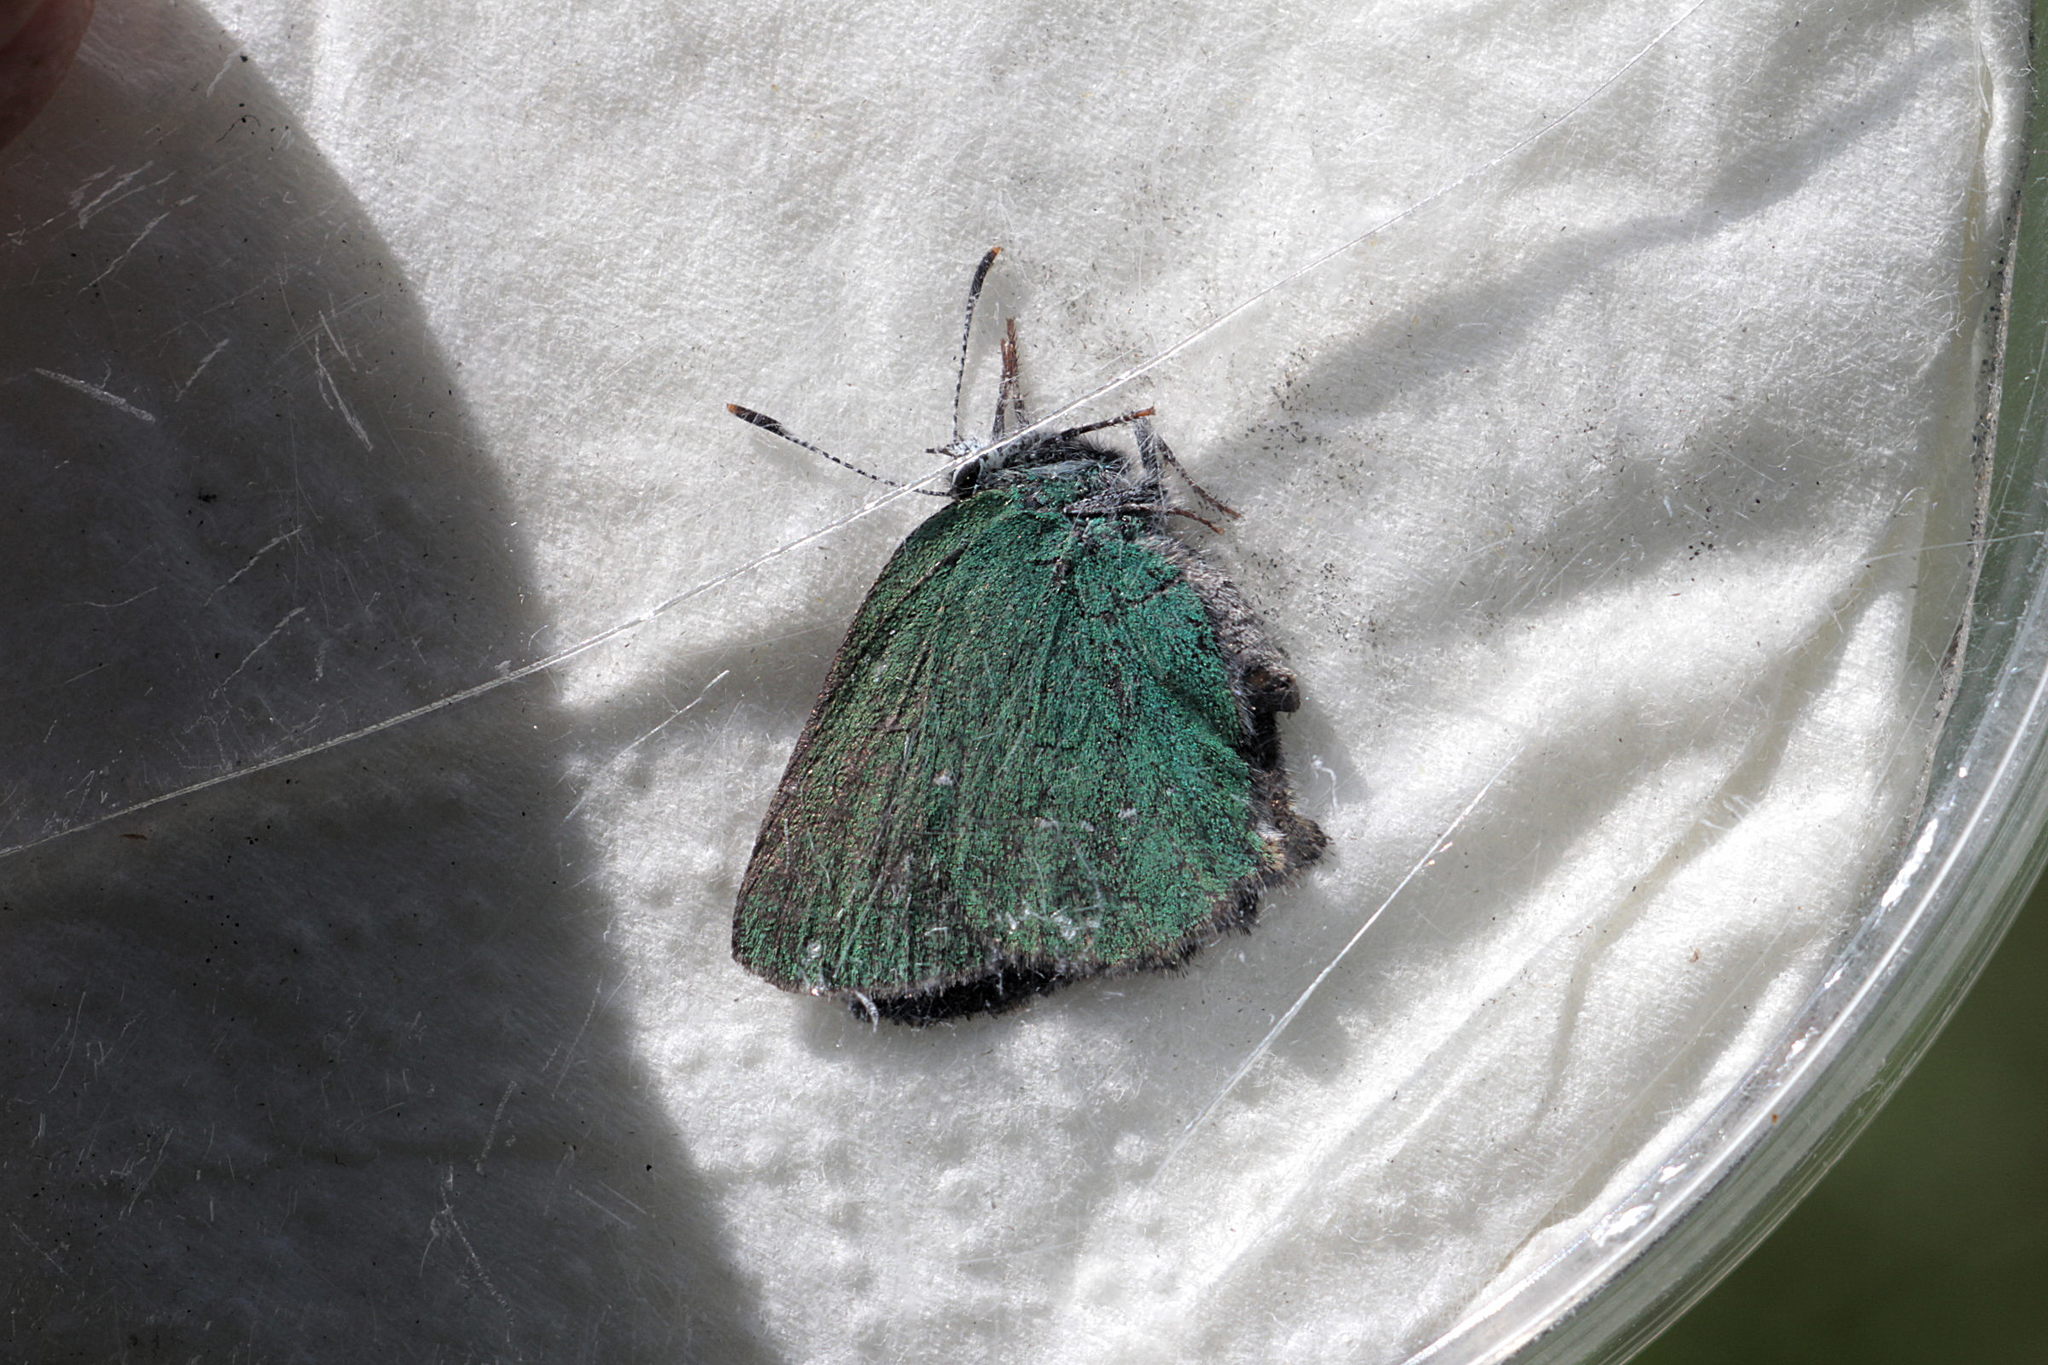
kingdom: Animalia
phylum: Arthropoda
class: Insecta
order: Lepidoptera
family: Lycaenidae
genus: Callophrys
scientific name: Callophrys rubi
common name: Green hairstreak
